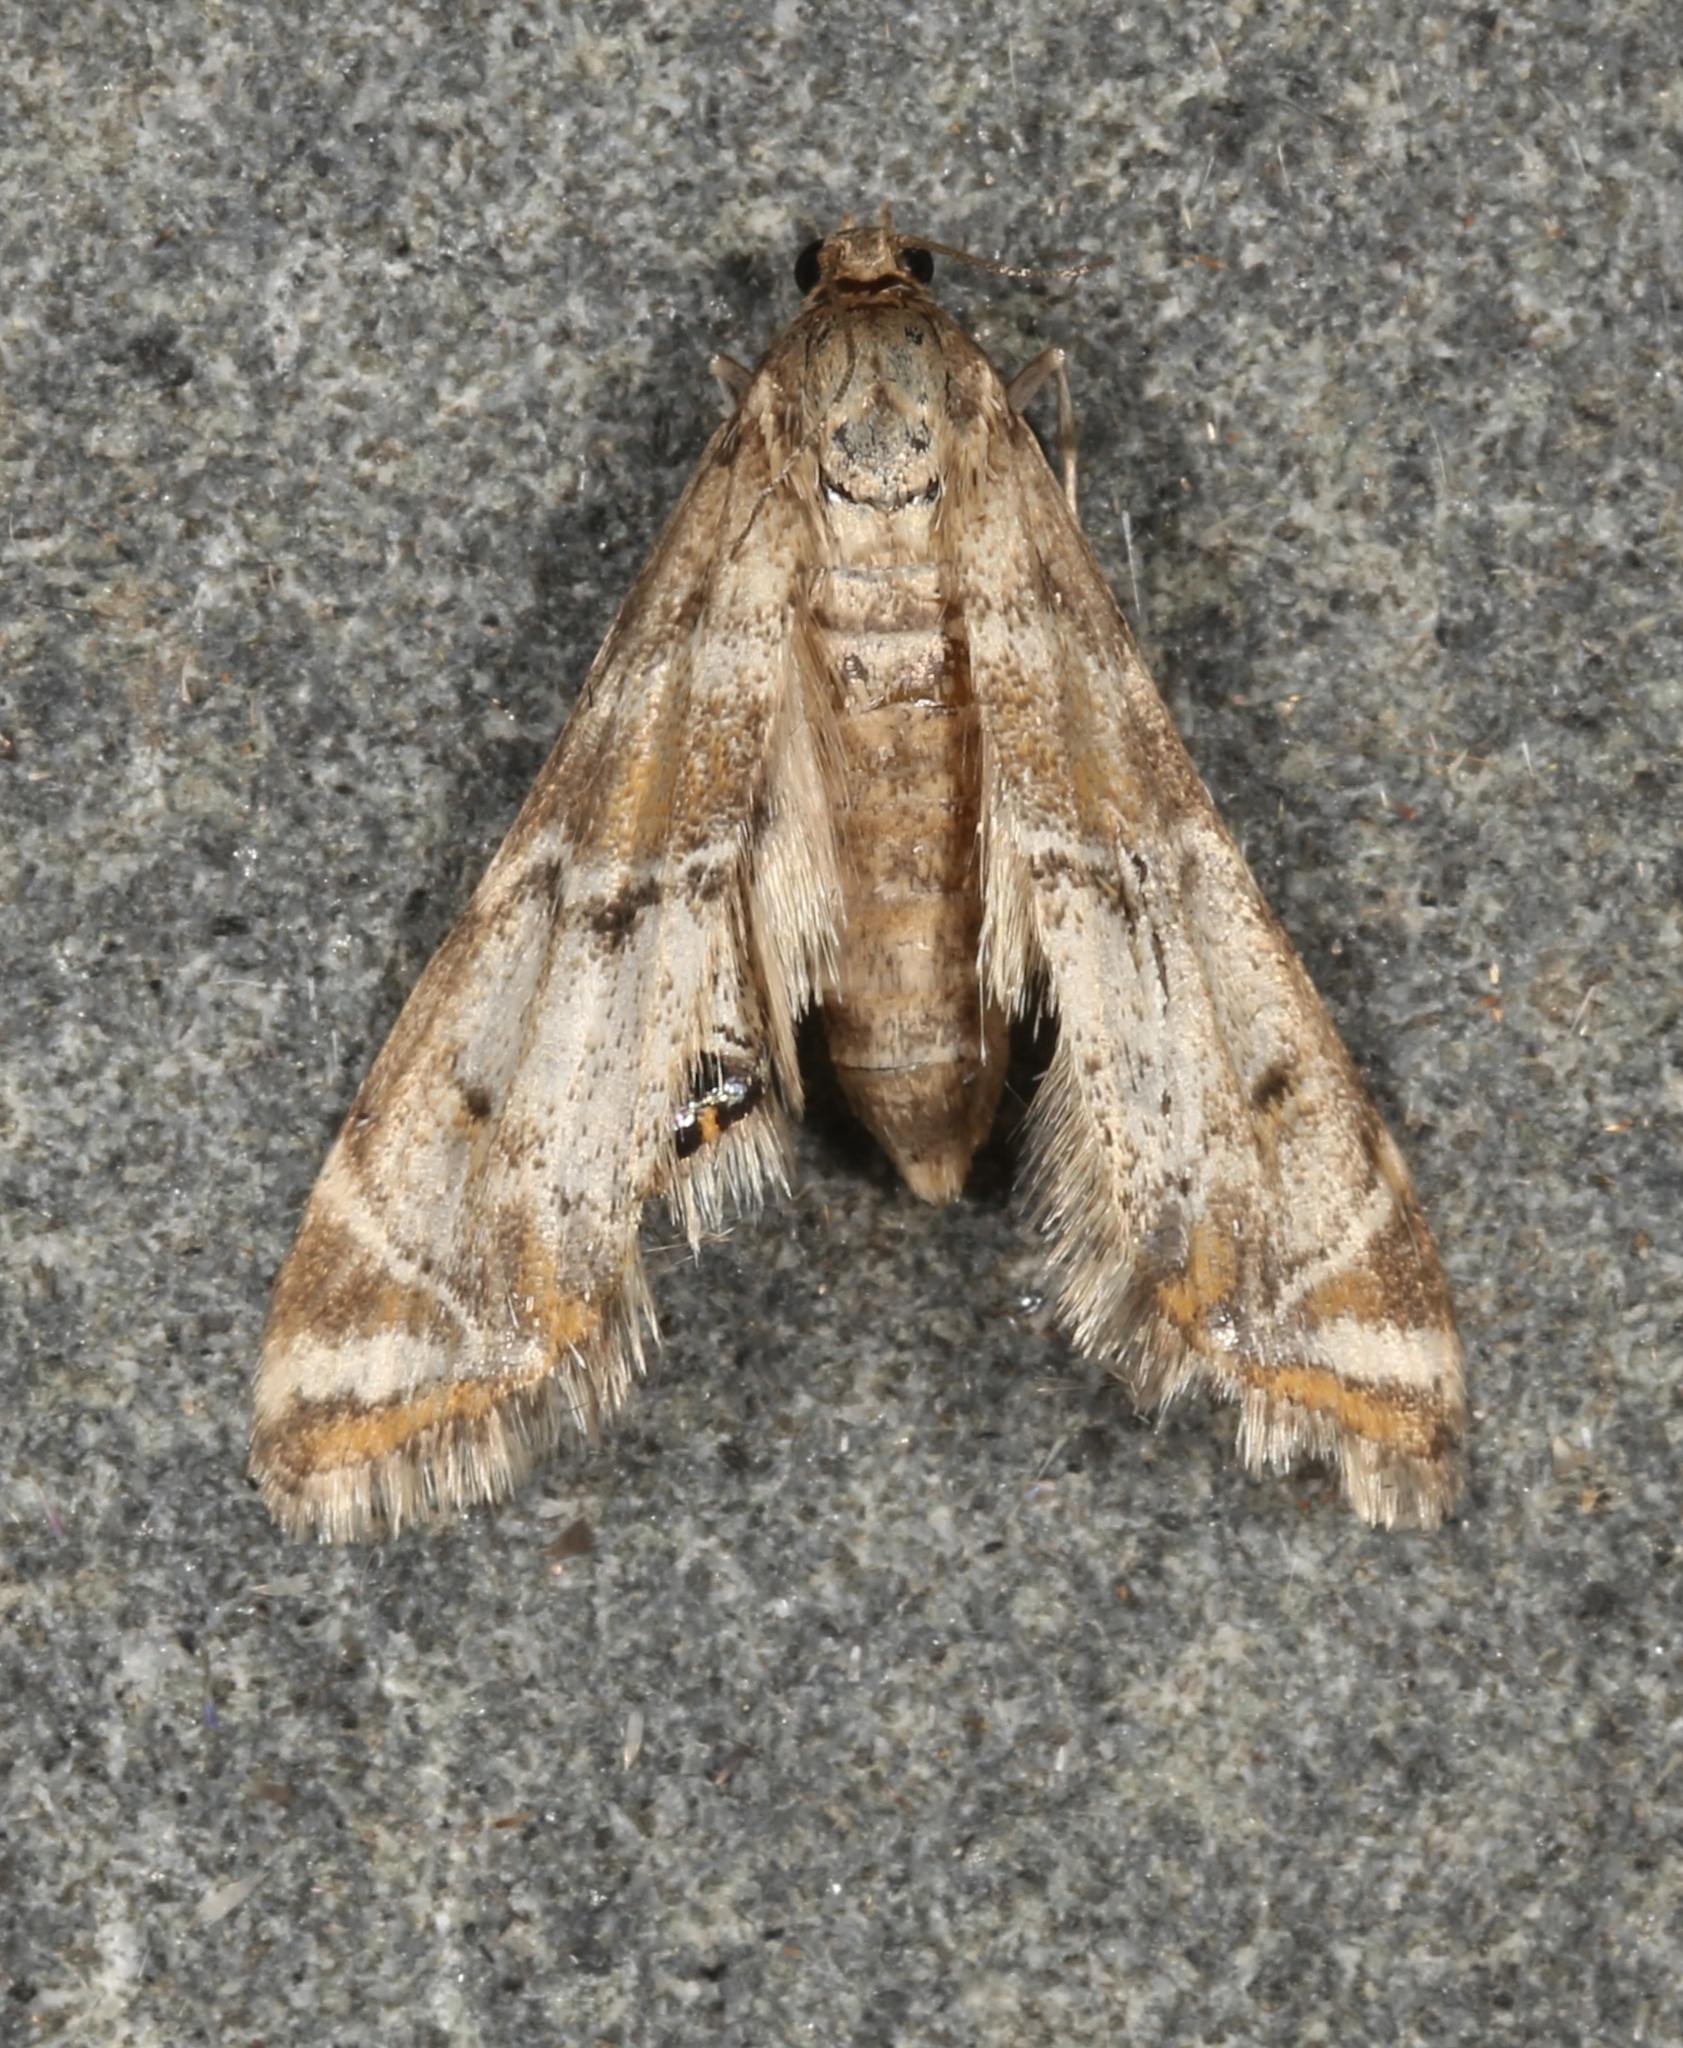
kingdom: Animalia
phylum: Arthropoda
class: Insecta
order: Lepidoptera
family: Crambidae
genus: Petrophila
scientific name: Petrophila confusalis
